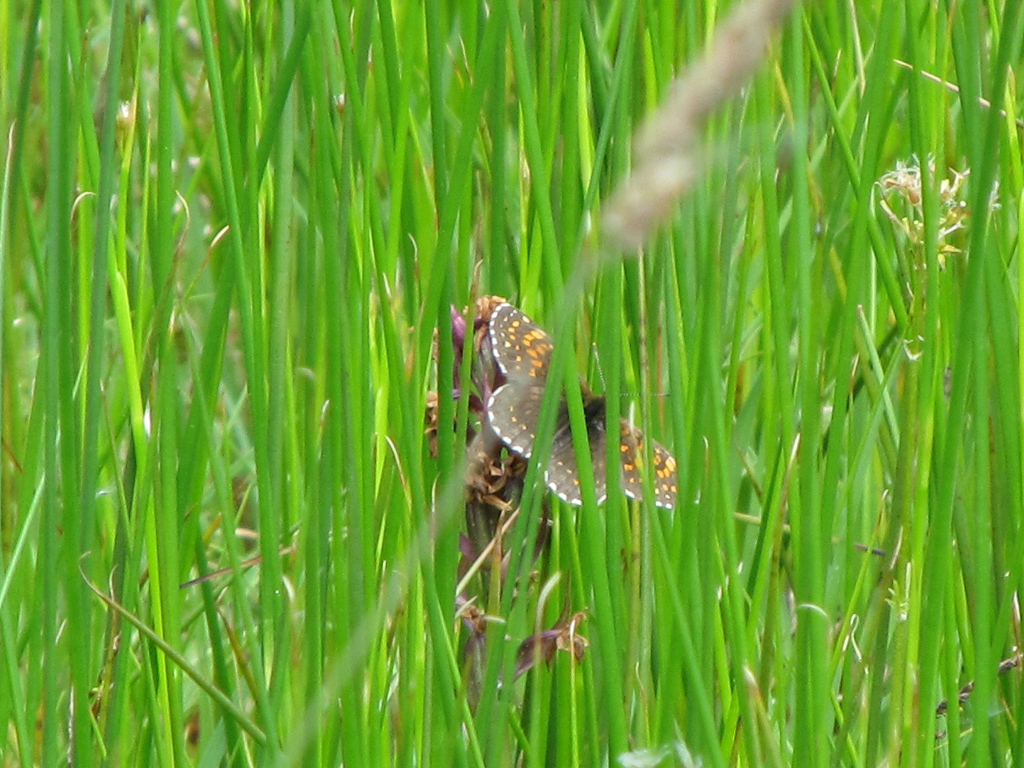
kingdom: Animalia
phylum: Arthropoda
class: Insecta
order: Lepidoptera
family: Nymphalidae
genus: Melitaea
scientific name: Melitaea diamina
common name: False heath fritillary
